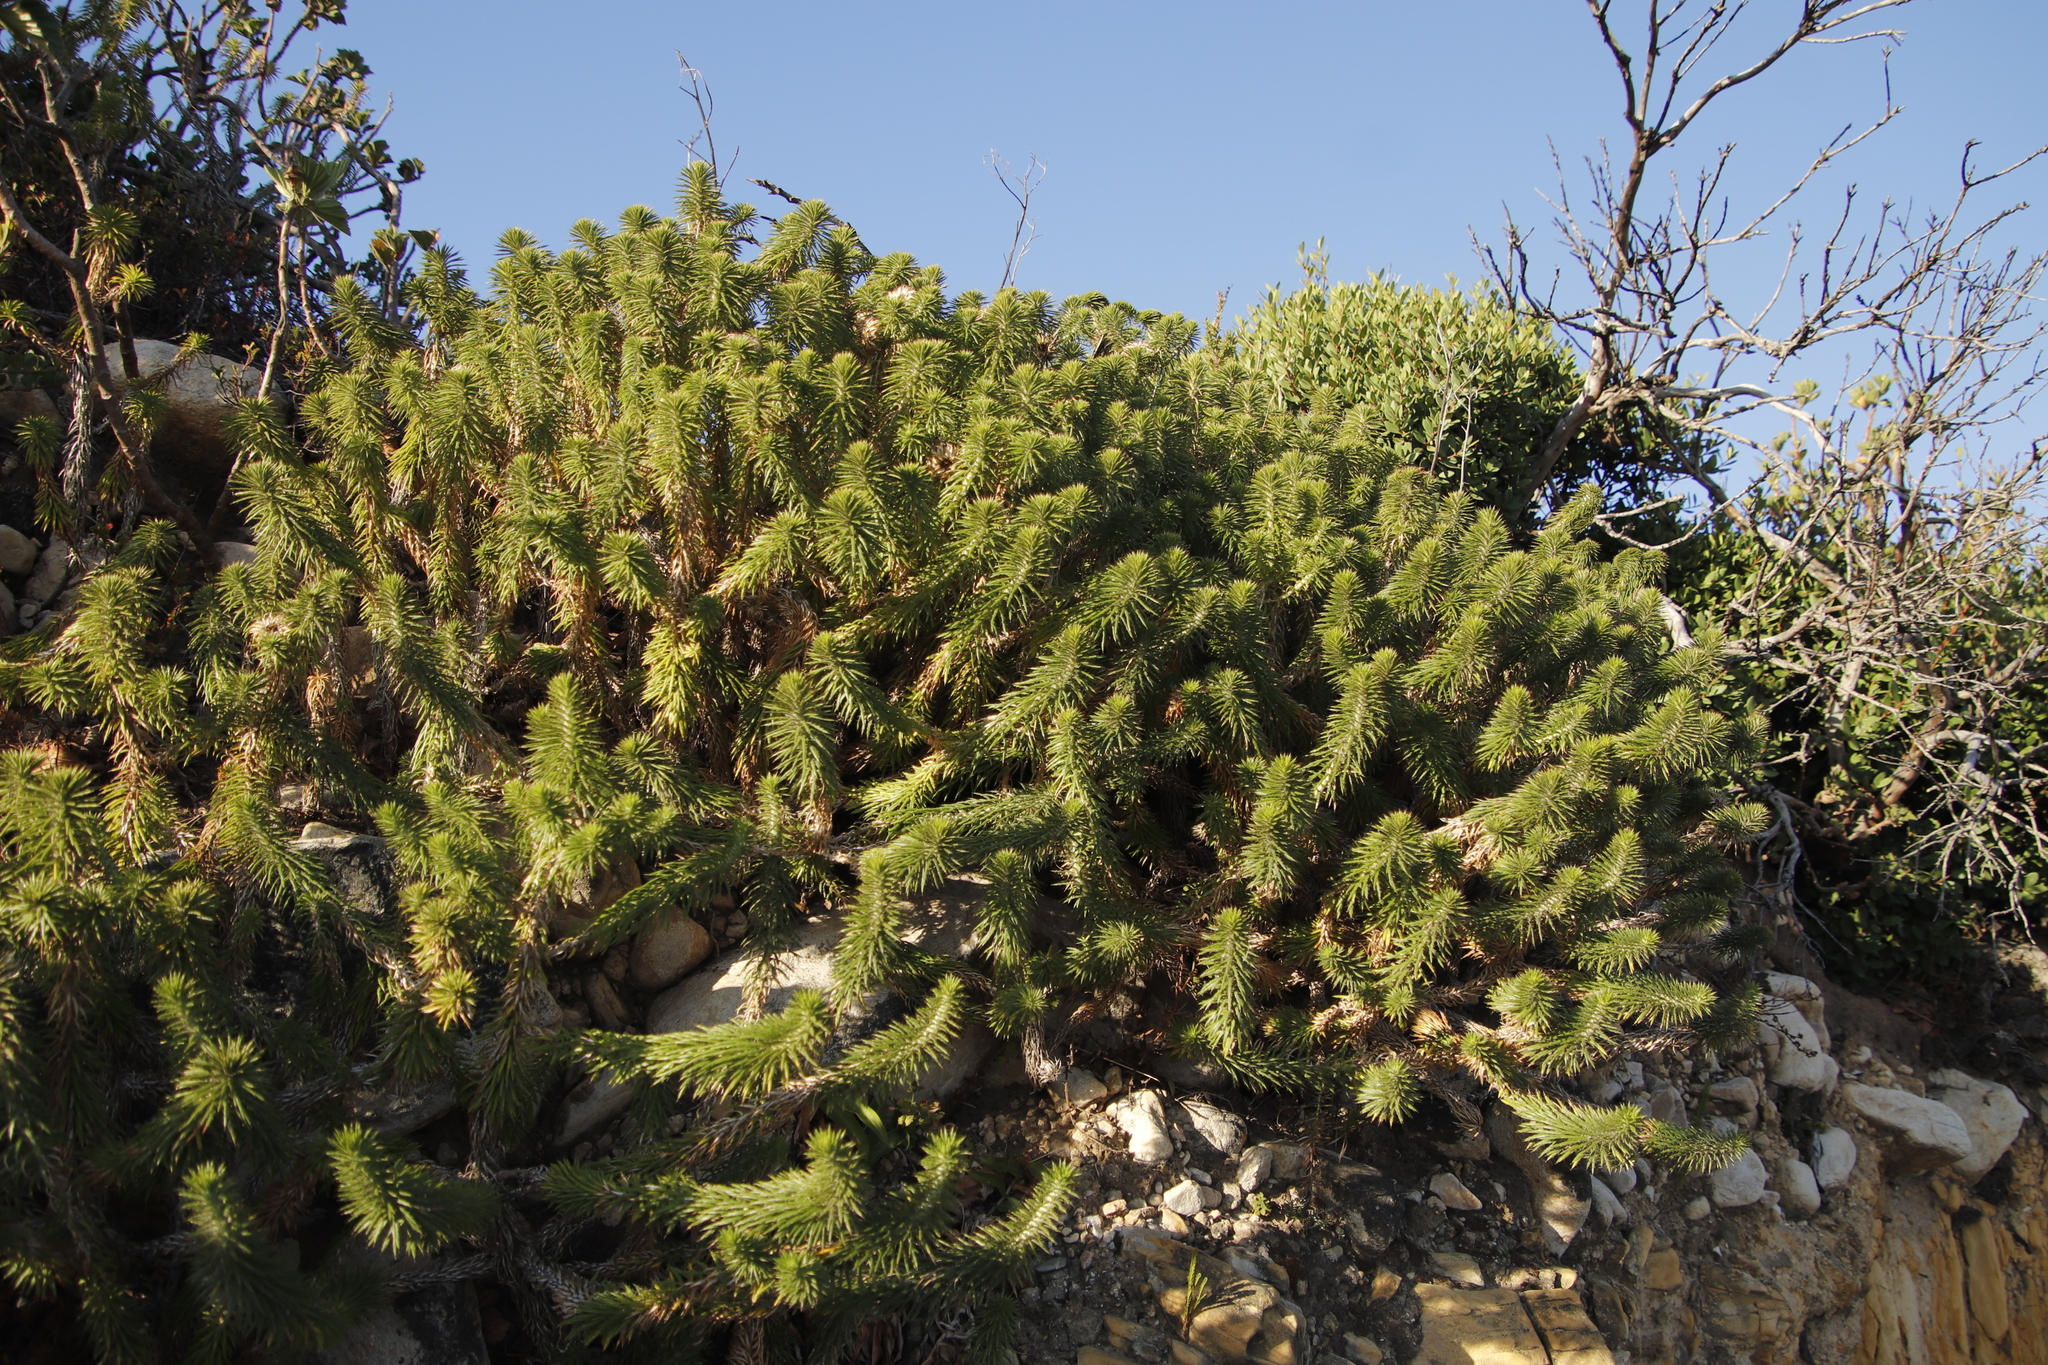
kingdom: Plantae
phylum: Tracheophyta
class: Magnoliopsida
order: Asterales
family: Asteraceae
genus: Cullumia
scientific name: Cullumia squarrosa
